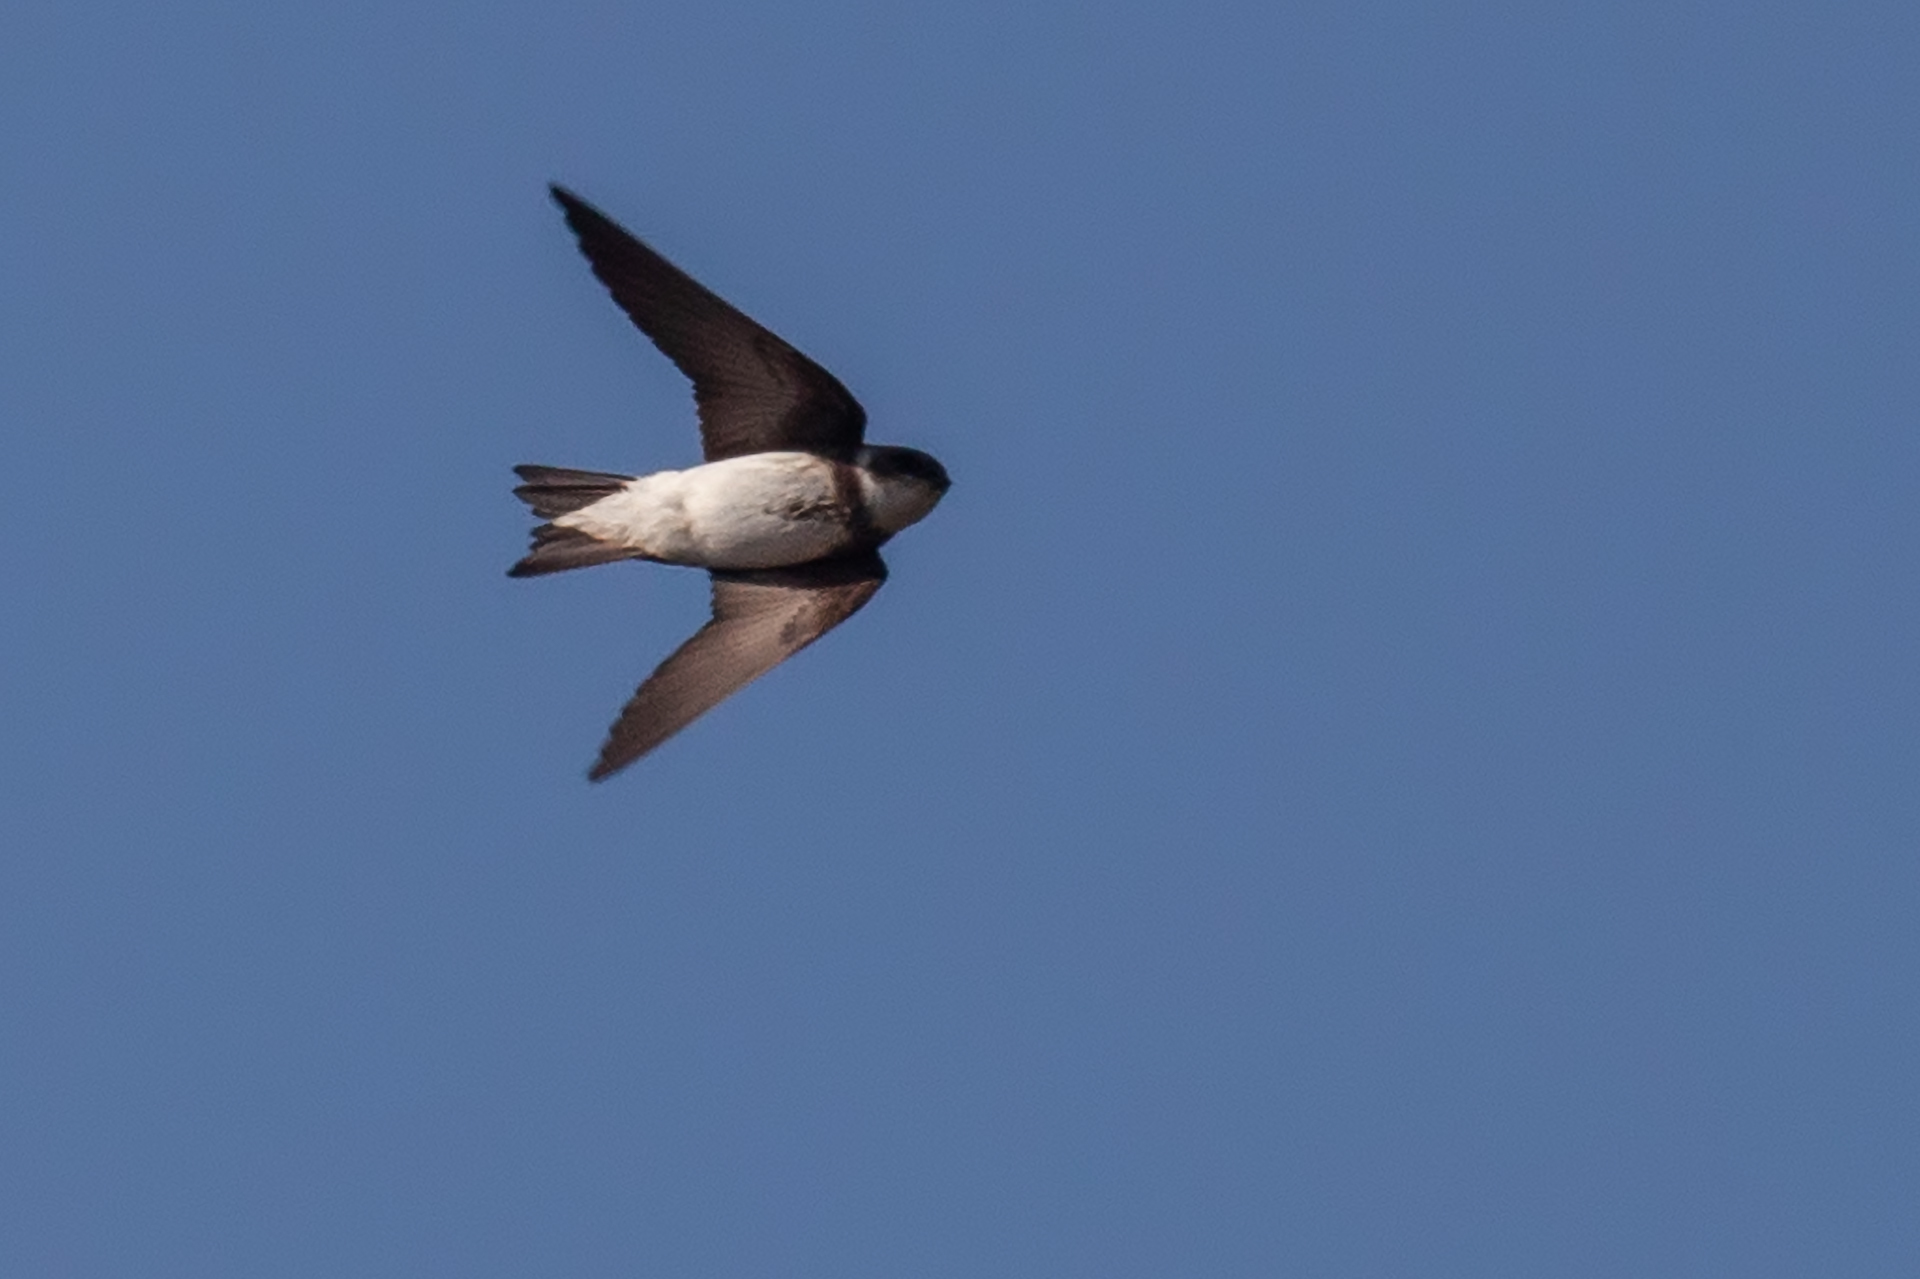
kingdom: Animalia
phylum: Chordata
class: Aves
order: Passeriformes
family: Hirundinidae
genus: Riparia
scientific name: Riparia riparia
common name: Sand martin
